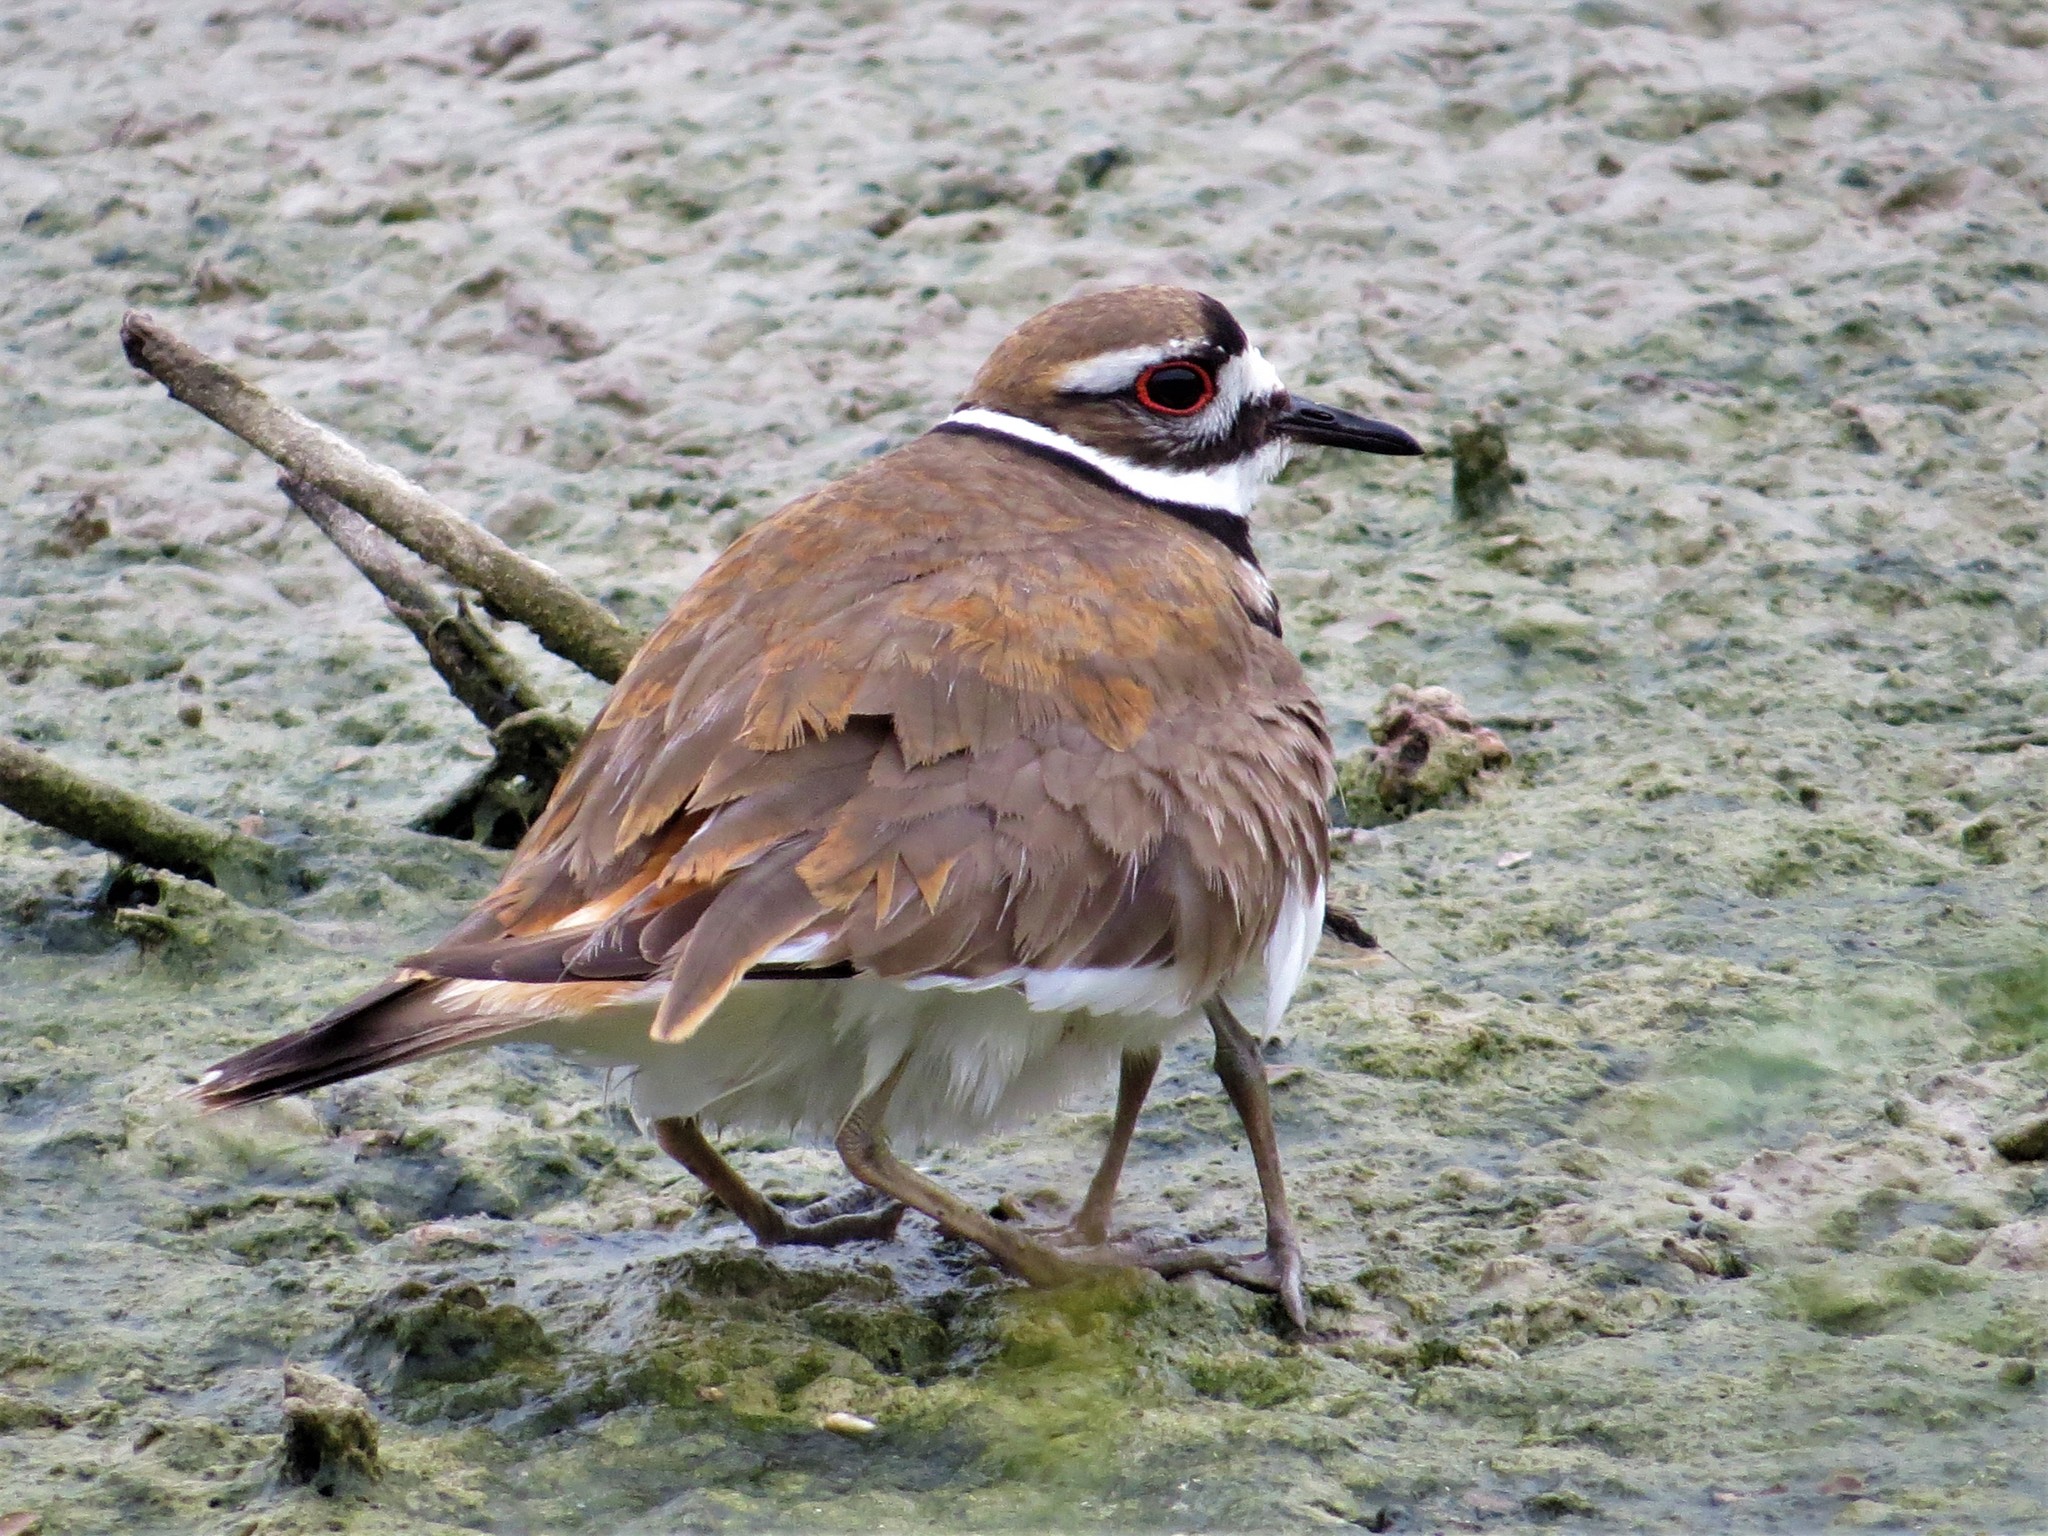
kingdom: Animalia
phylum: Chordata
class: Aves
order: Charadriiformes
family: Charadriidae
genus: Charadrius
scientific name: Charadrius vociferus
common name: Killdeer
